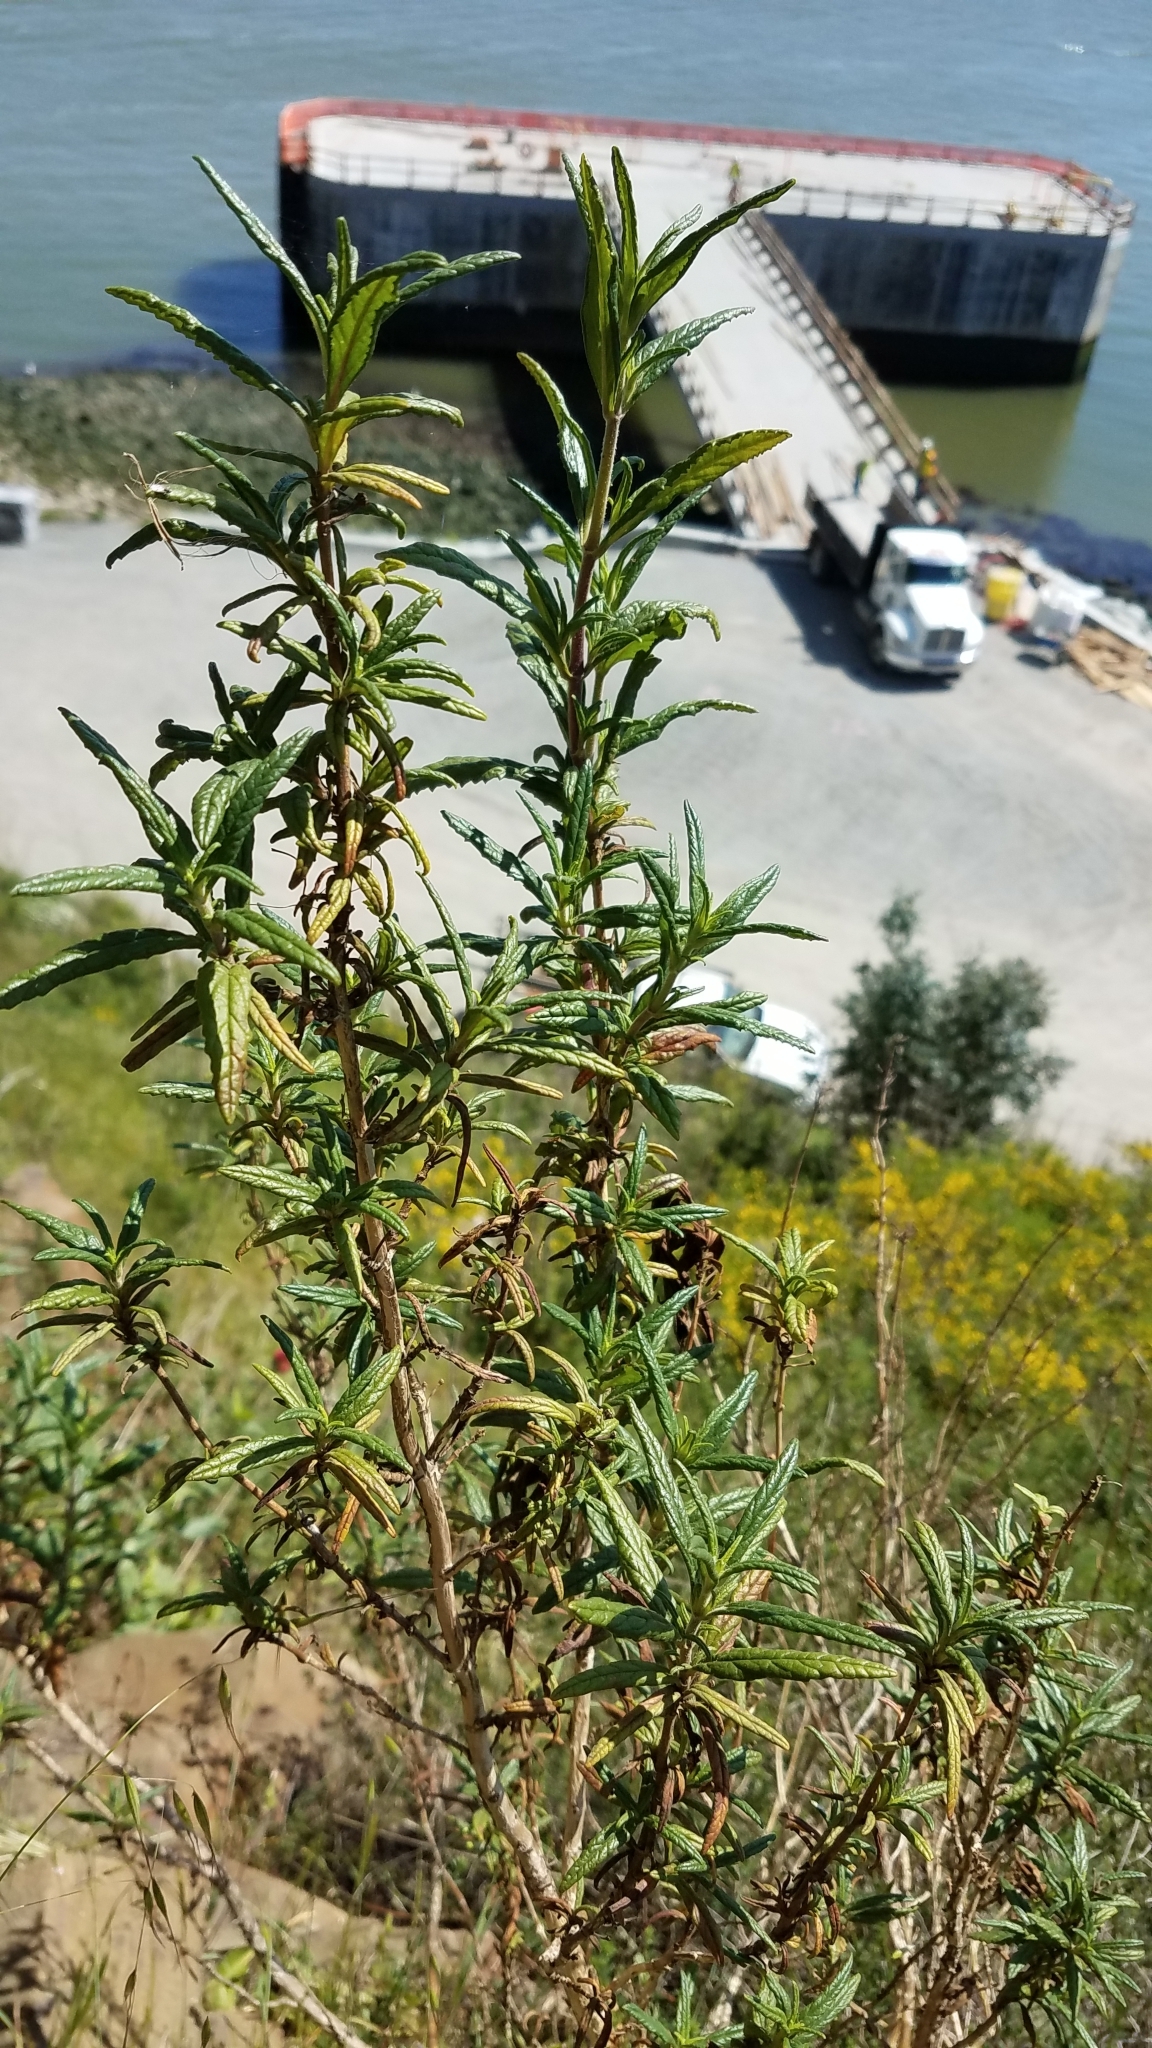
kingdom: Plantae
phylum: Tracheophyta
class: Magnoliopsida
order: Lamiales
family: Phrymaceae
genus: Diplacus
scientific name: Diplacus aurantiacus
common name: Bush monkey-flower
